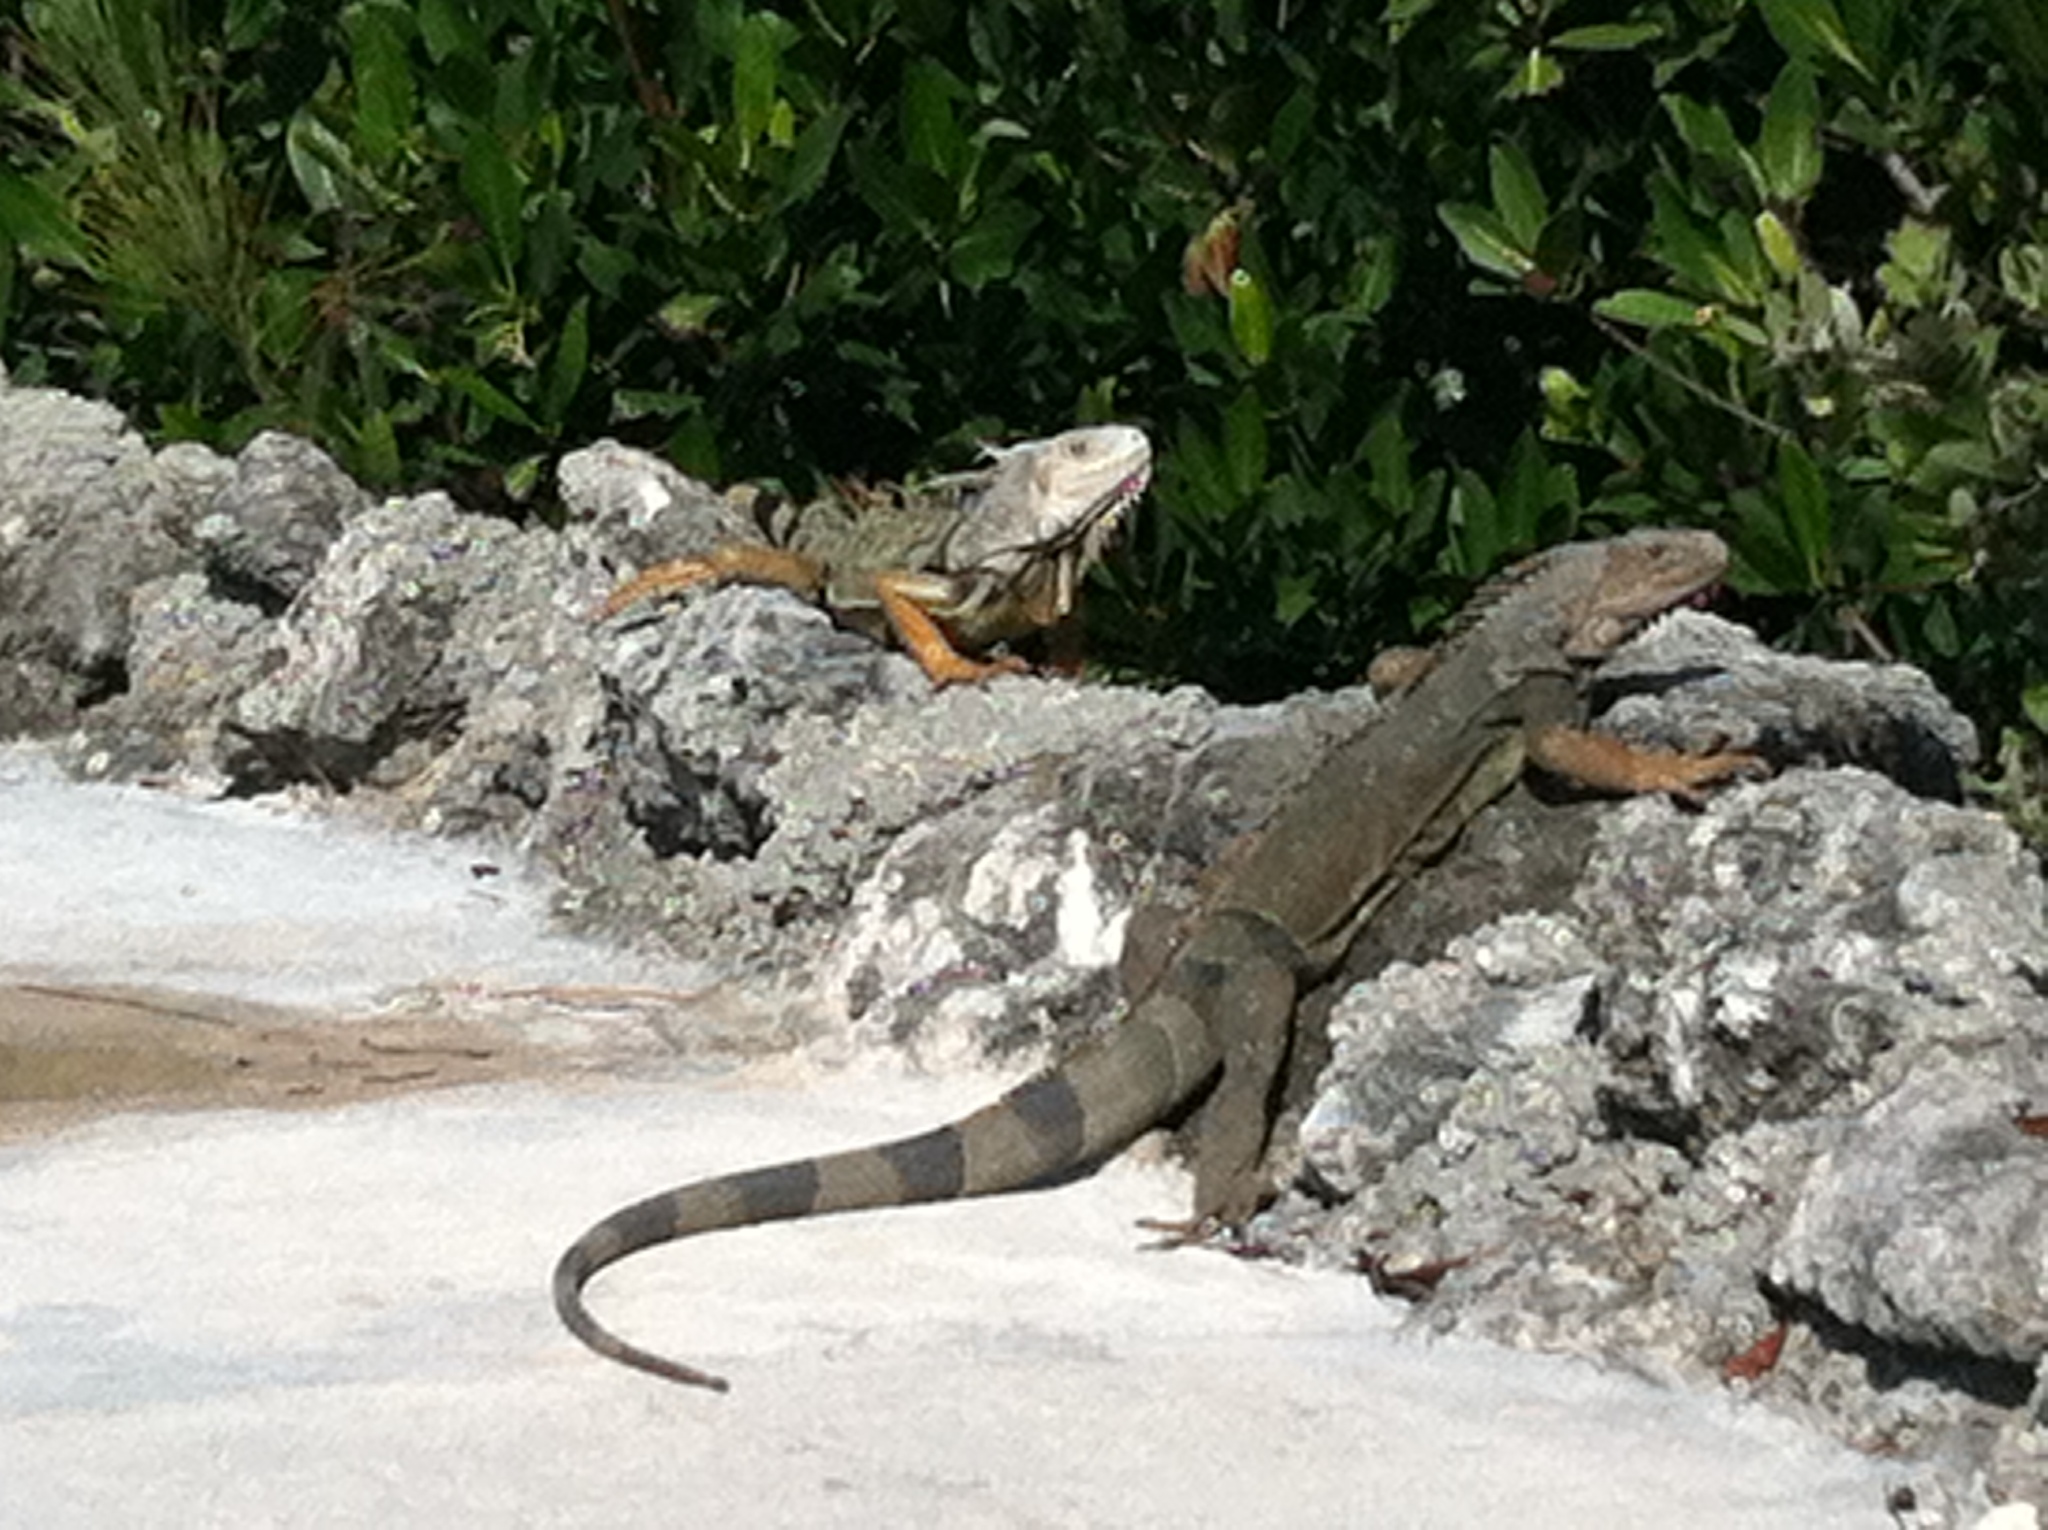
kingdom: Animalia
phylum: Chordata
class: Squamata
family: Iguanidae
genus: Iguana
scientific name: Iguana iguana
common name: Green iguana
